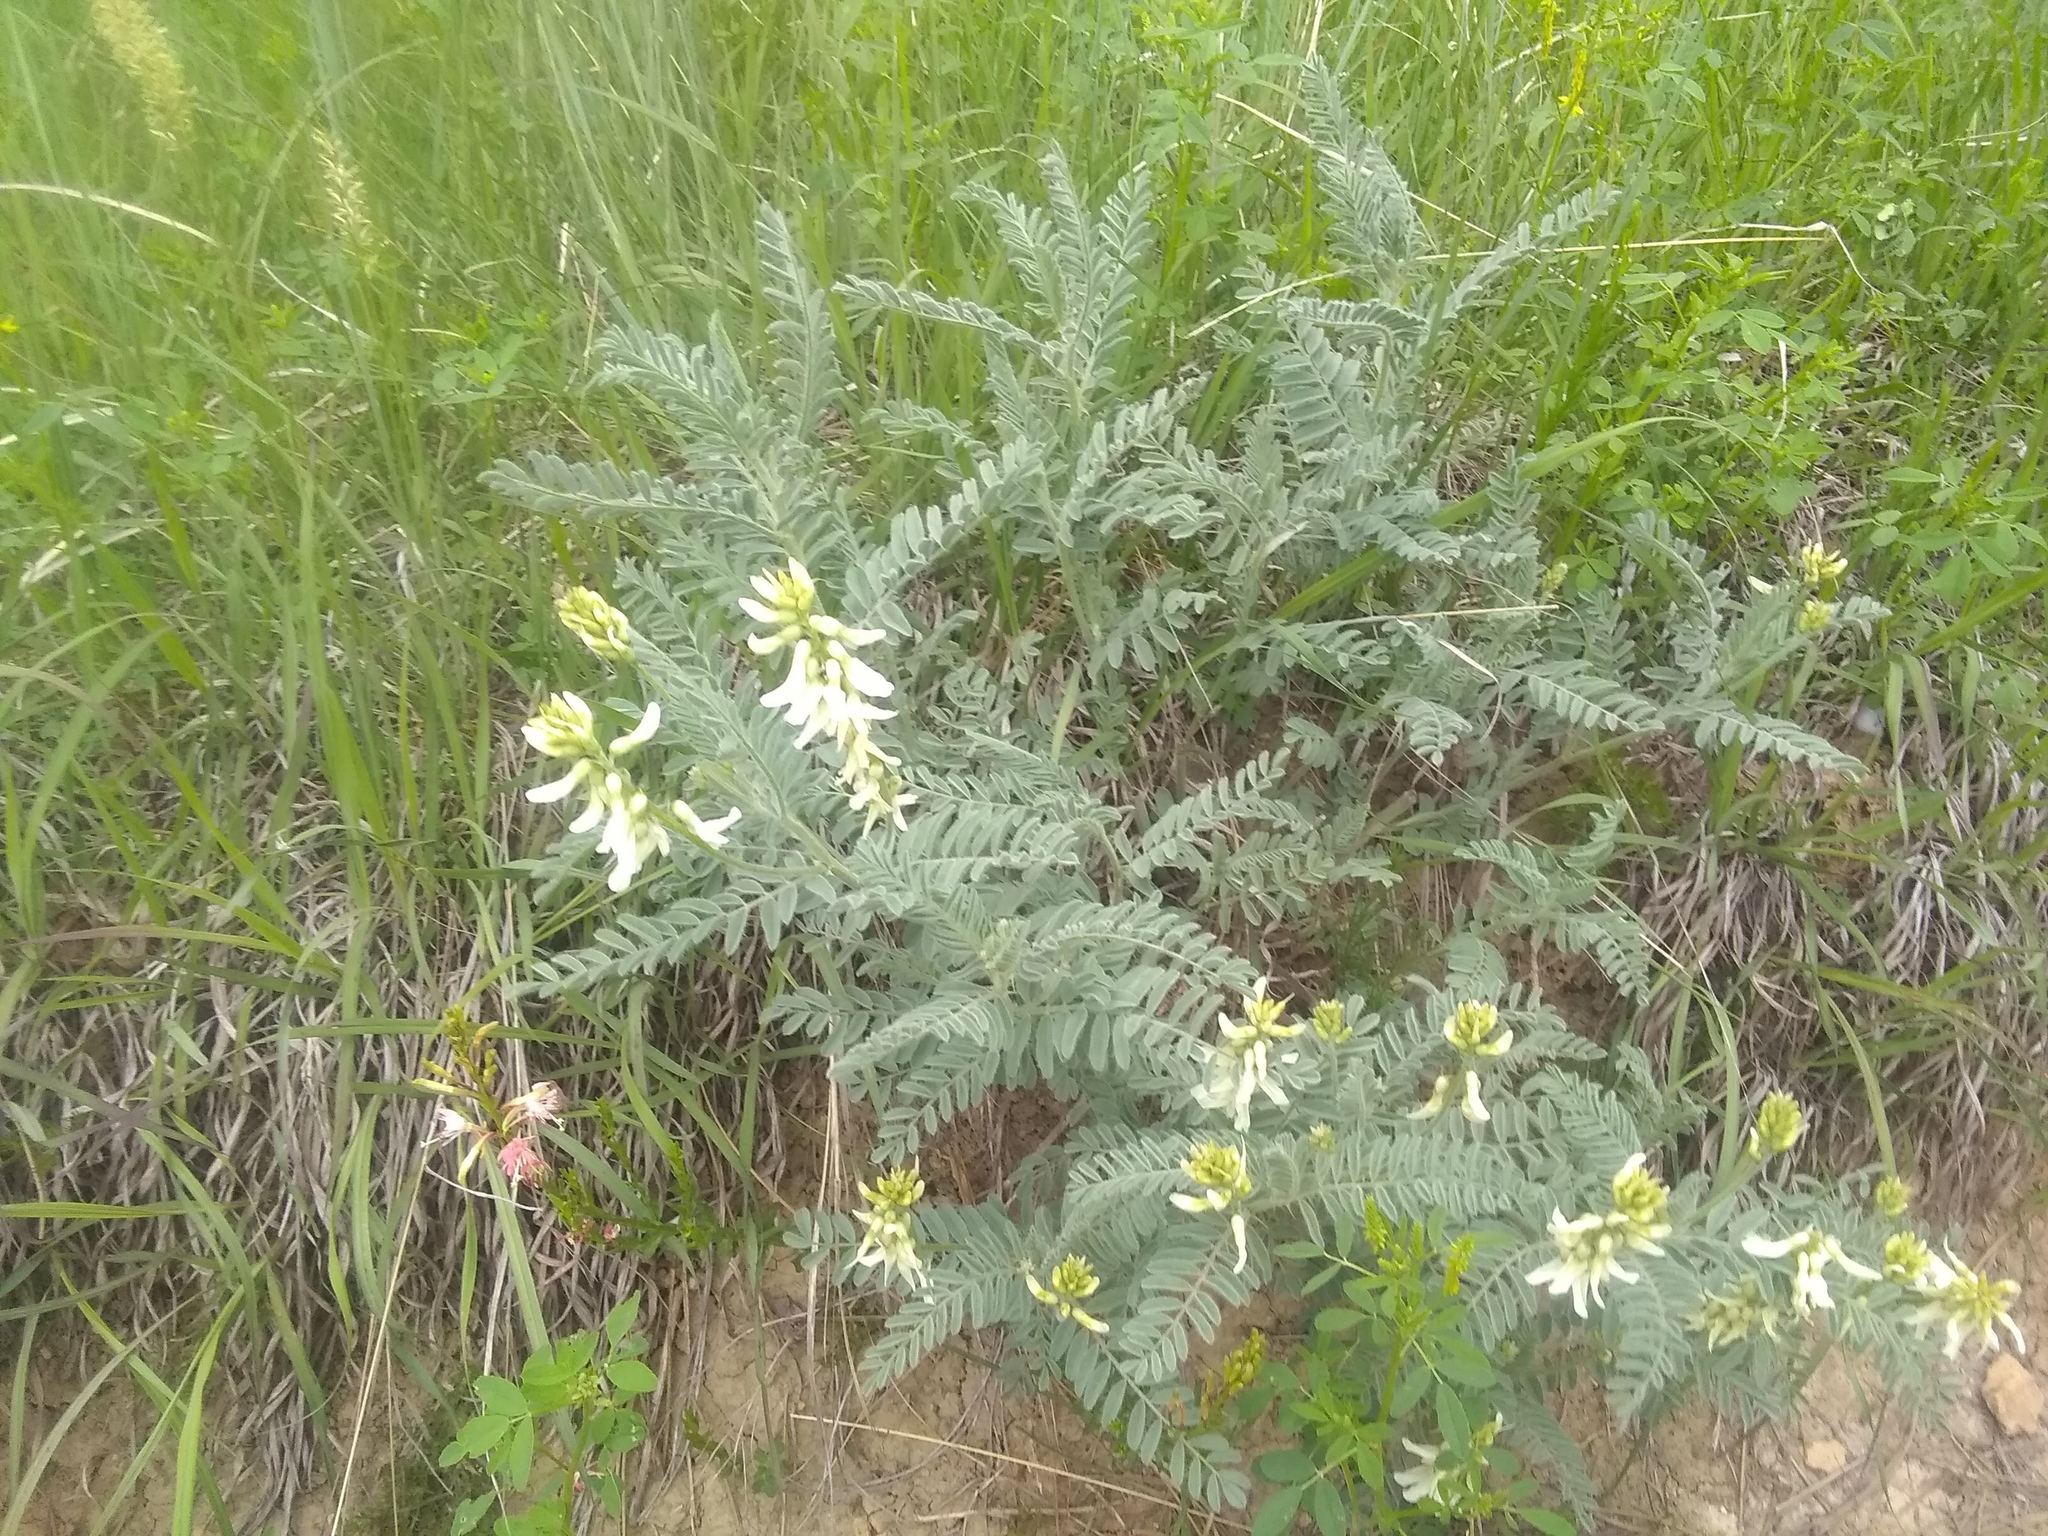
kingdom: Plantae
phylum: Tracheophyta
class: Magnoliopsida
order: Fabales
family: Fabaceae
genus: Astragalus
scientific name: Astragalus drummondii
